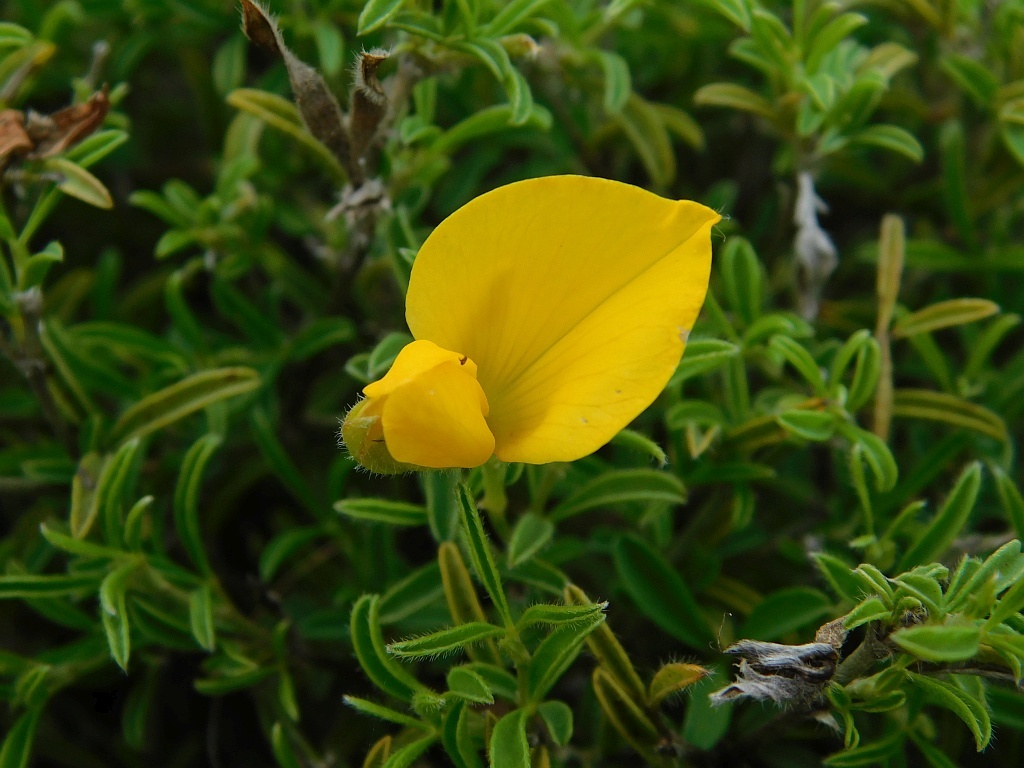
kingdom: Plantae
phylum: Tracheophyta
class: Magnoliopsida
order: Fabales
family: Fabaceae
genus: Argyrolobium
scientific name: Argyrolobium pachyphyllum
